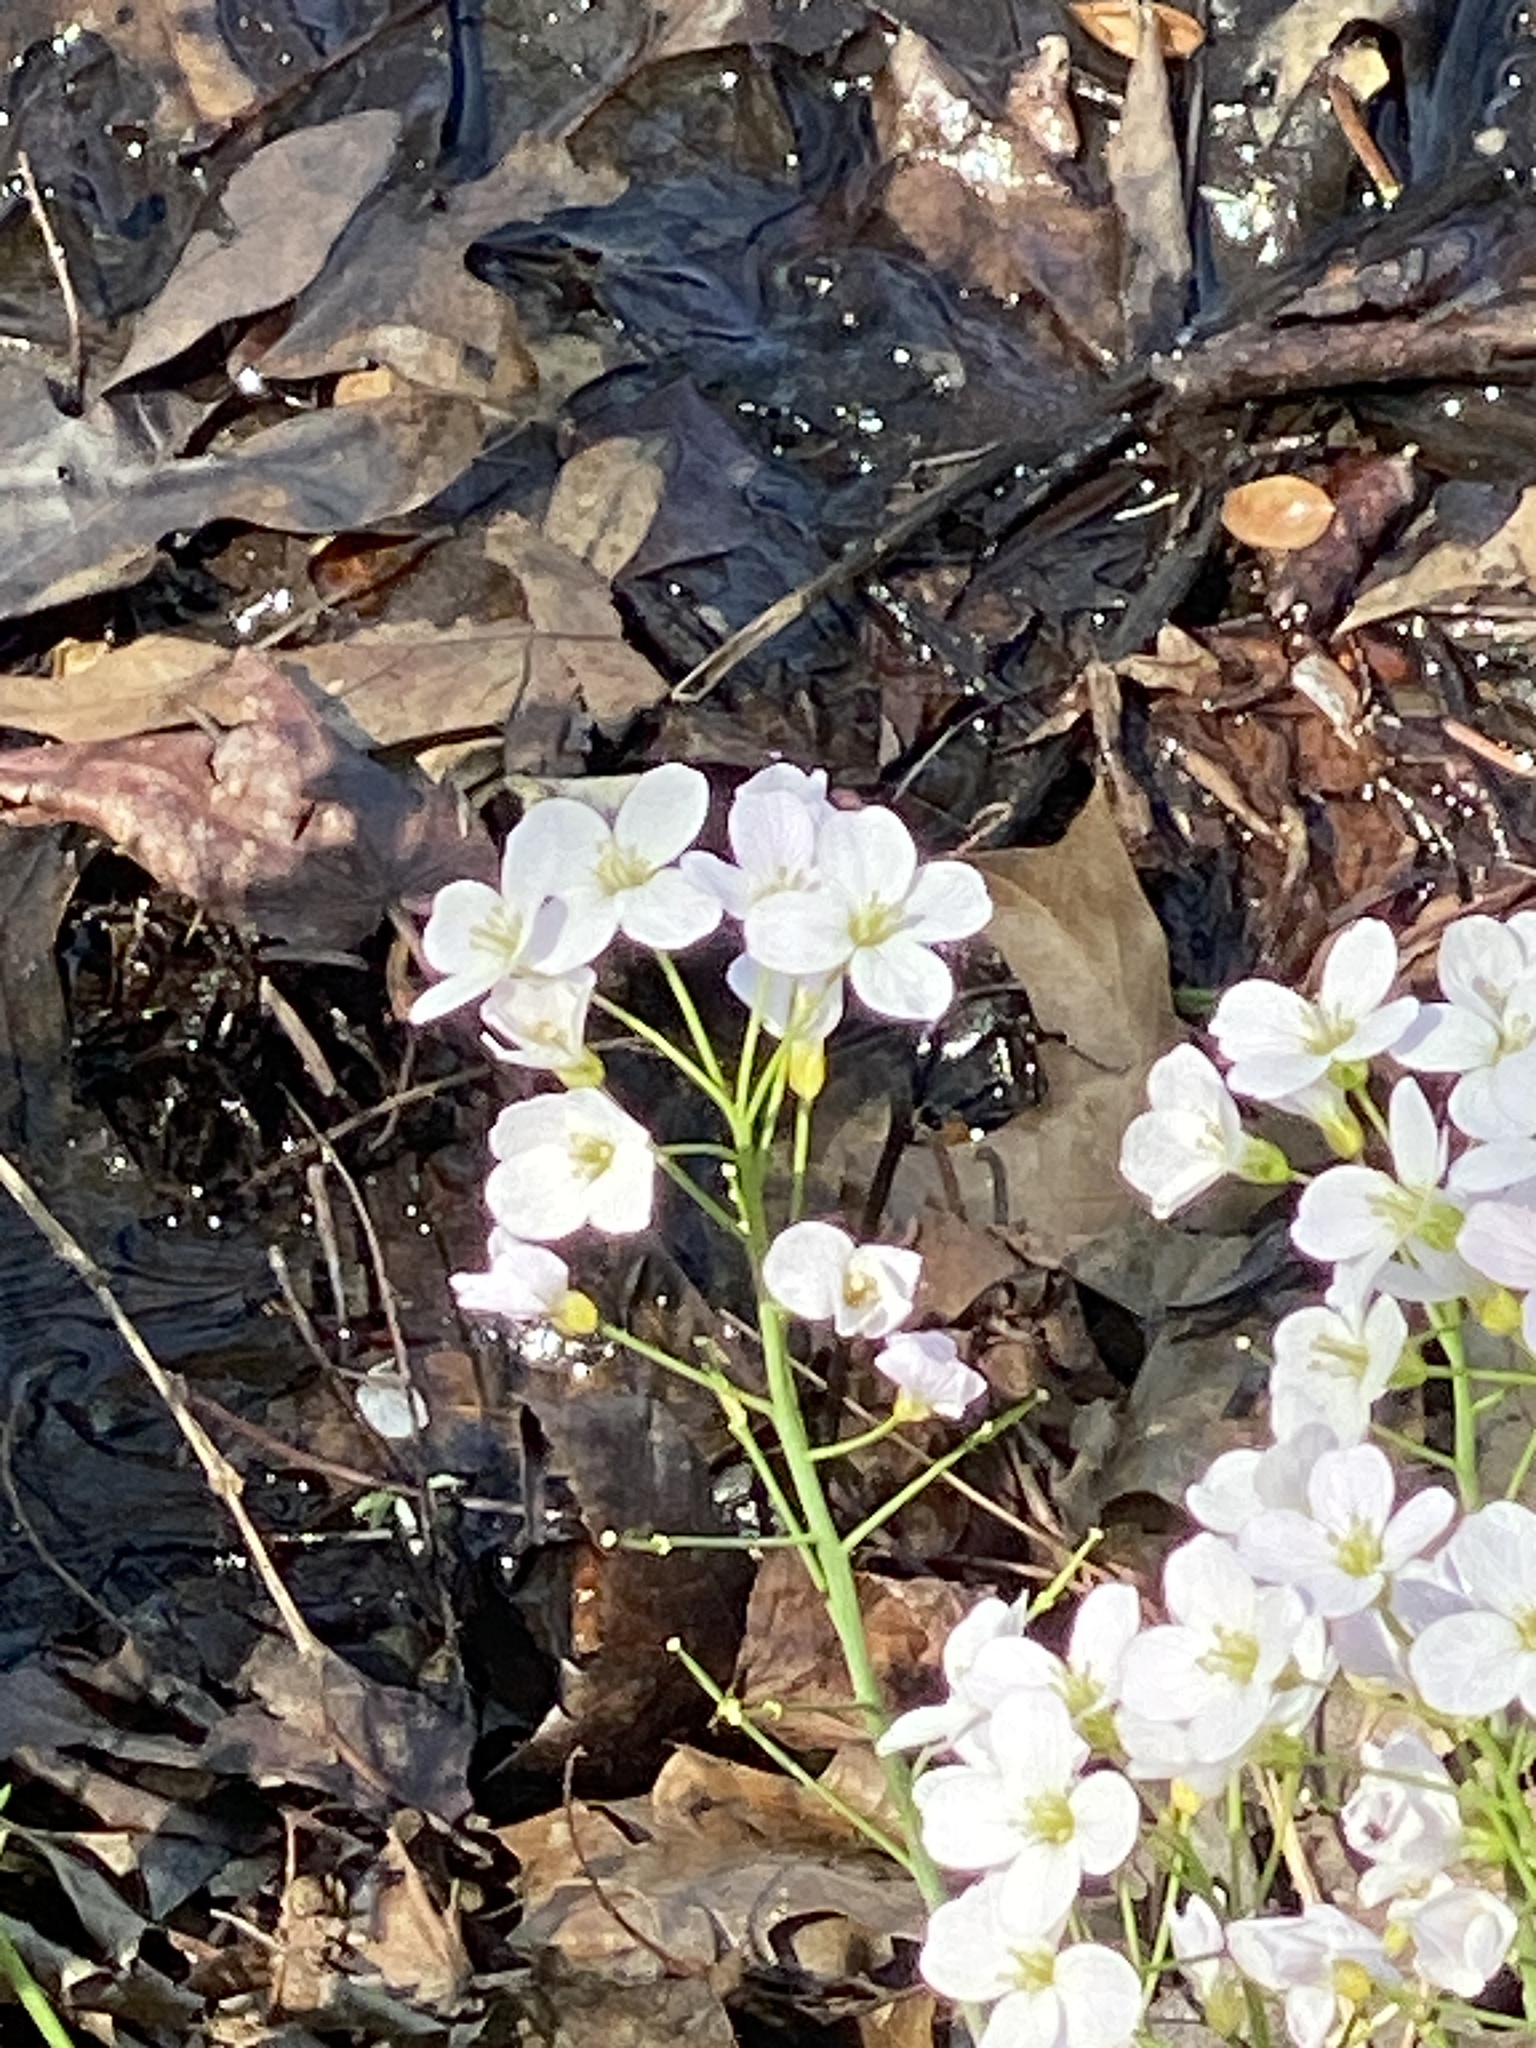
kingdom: Plantae
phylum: Tracheophyta
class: Magnoliopsida
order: Brassicales
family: Brassicaceae
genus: Cardamine
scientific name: Cardamine pratensis
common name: Cuckoo flower
